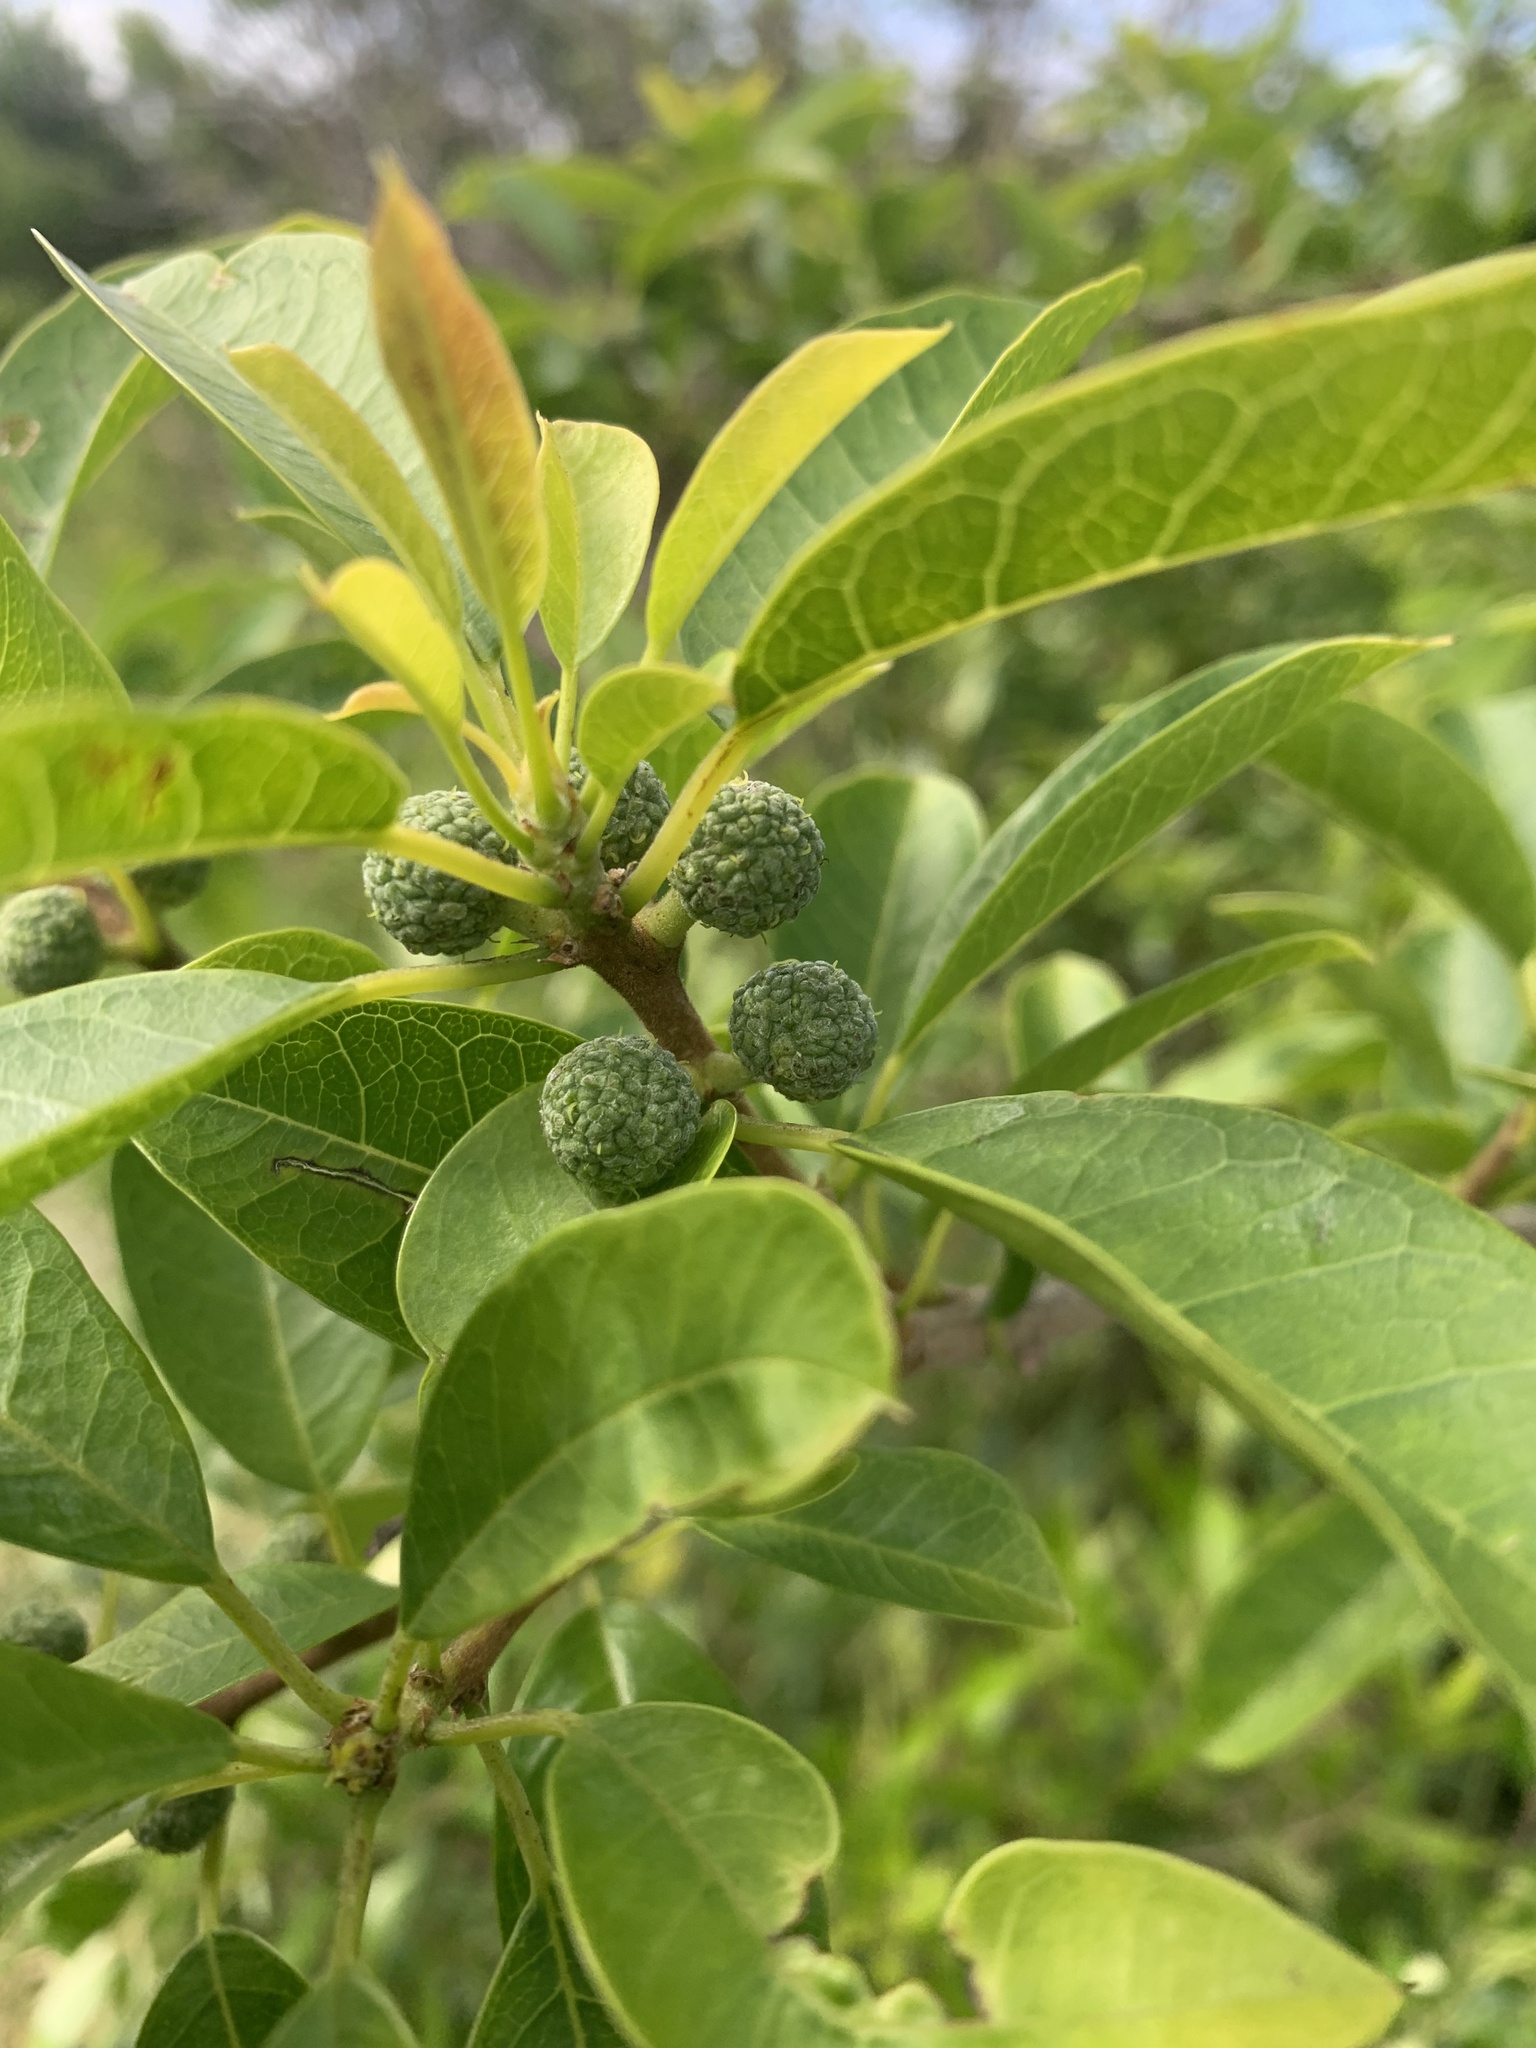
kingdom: Plantae
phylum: Tracheophyta
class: Magnoliopsida
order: Rosales
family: Moraceae
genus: Maclura
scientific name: Maclura cochinchinensis
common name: Cockspurthorn
